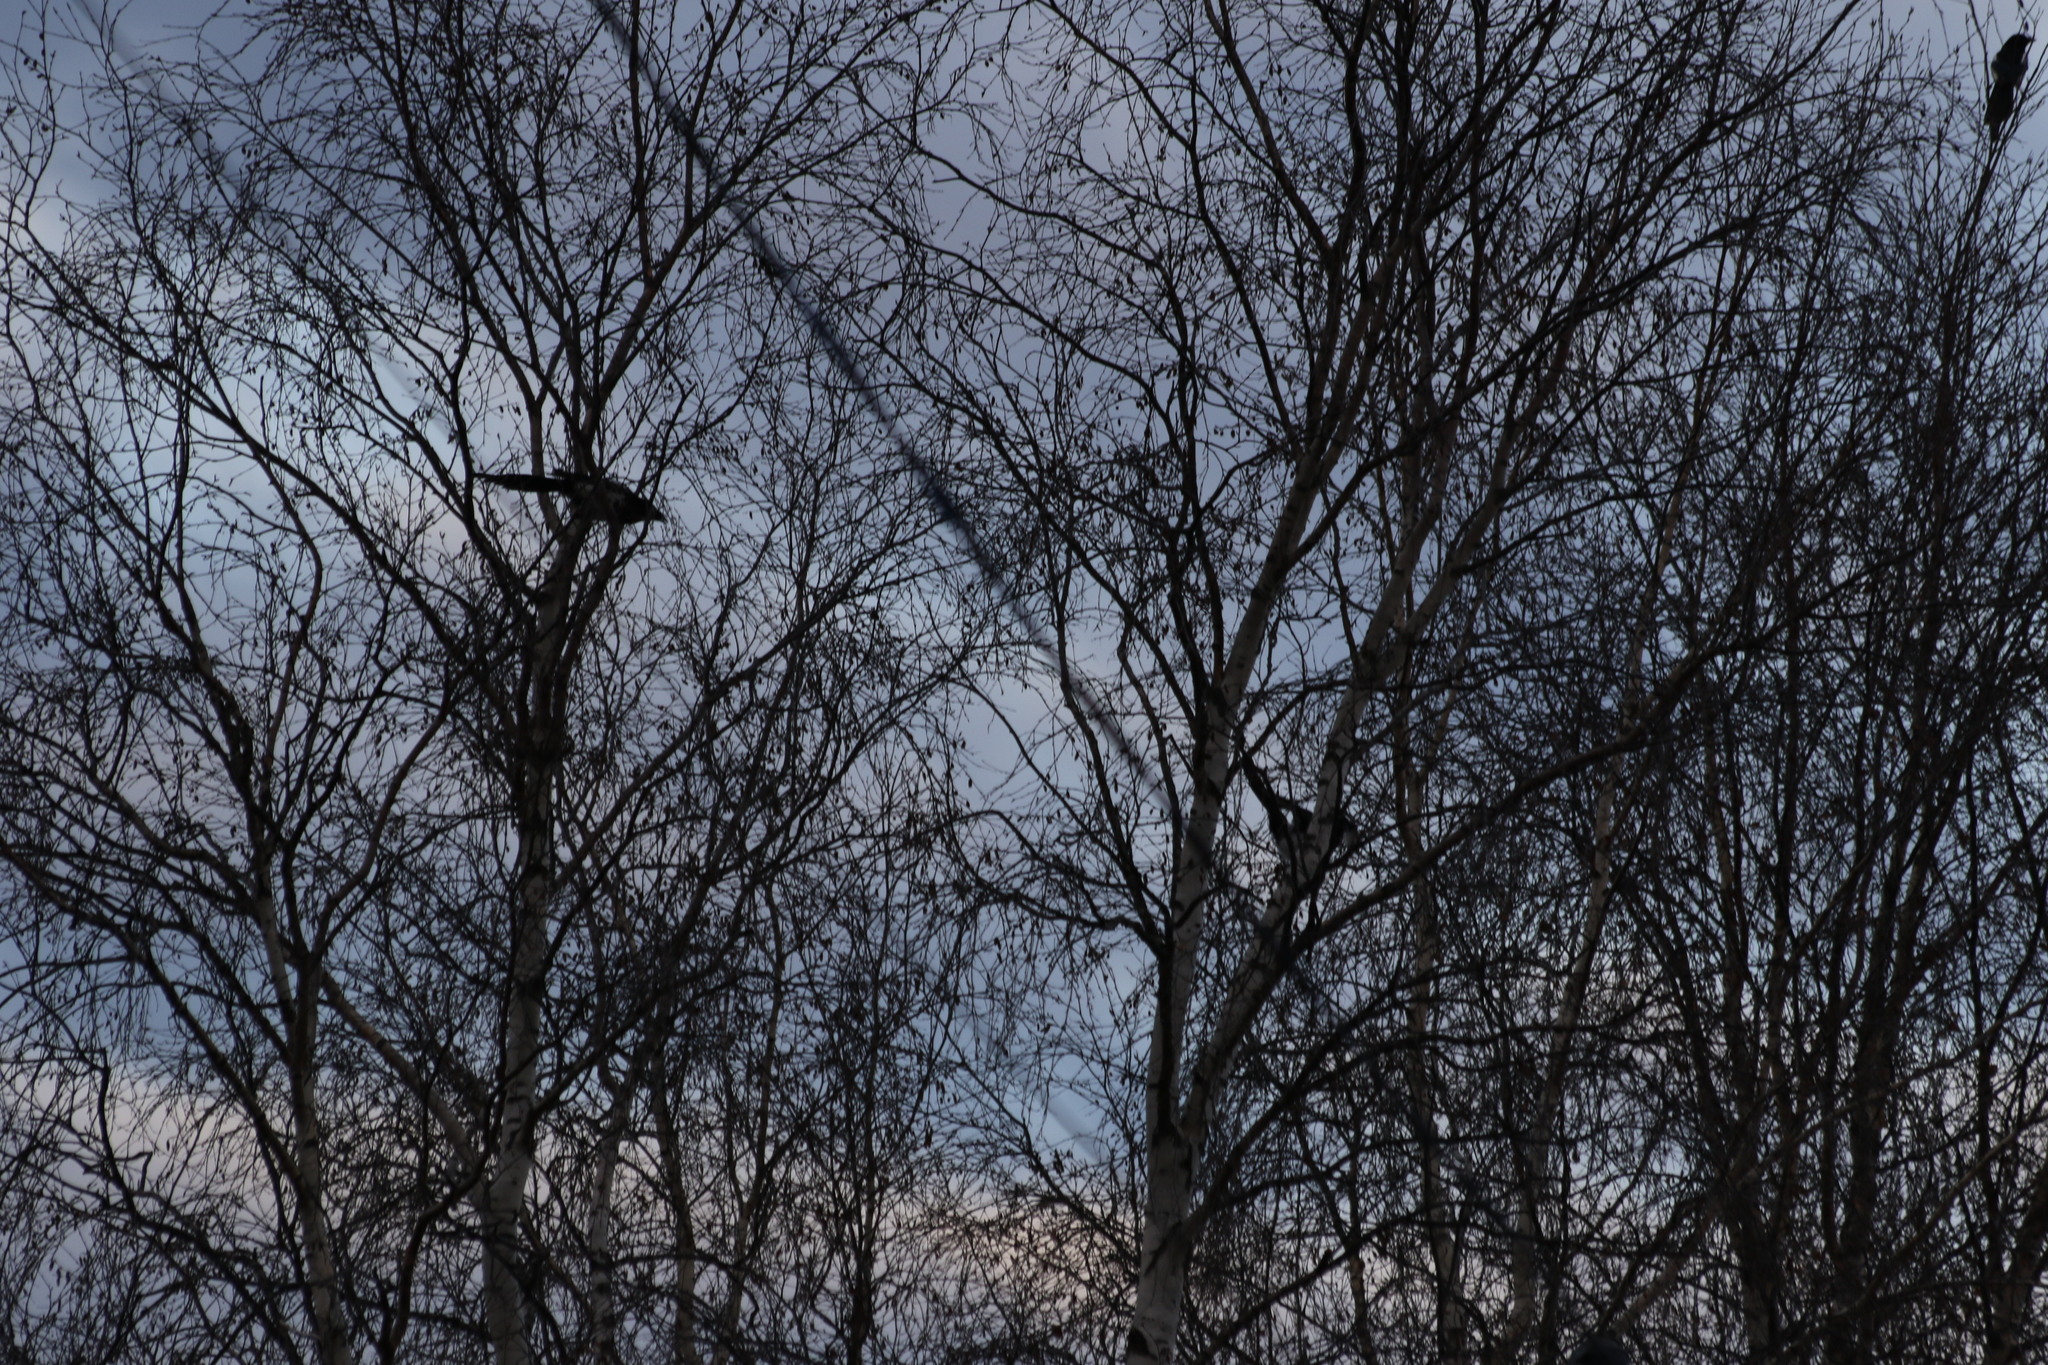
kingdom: Animalia
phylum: Chordata
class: Aves
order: Passeriformes
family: Corvidae
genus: Pica
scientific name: Pica pica
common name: Eurasian magpie
